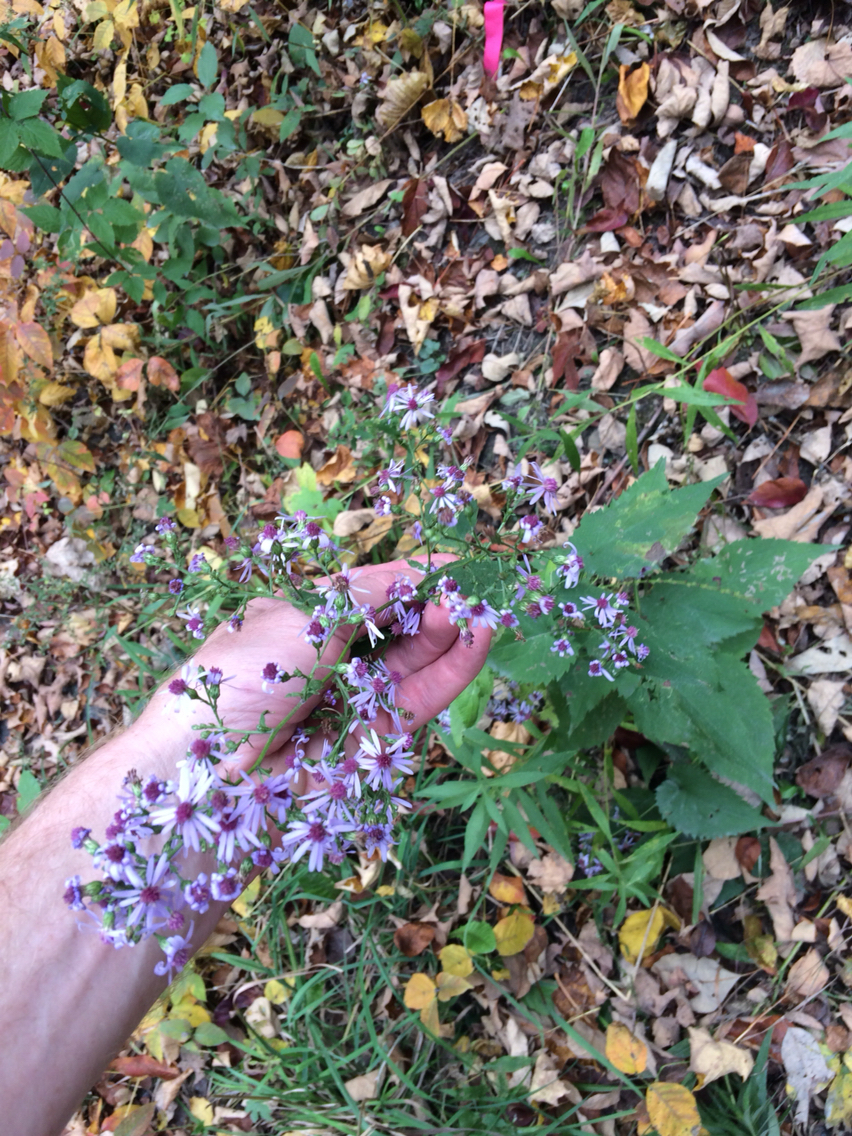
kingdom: Plantae
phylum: Tracheophyta
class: Magnoliopsida
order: Asterales
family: Asteraceae
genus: Symphyotrichum
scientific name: Symphyotrichum cordifolium
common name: Beeweed
